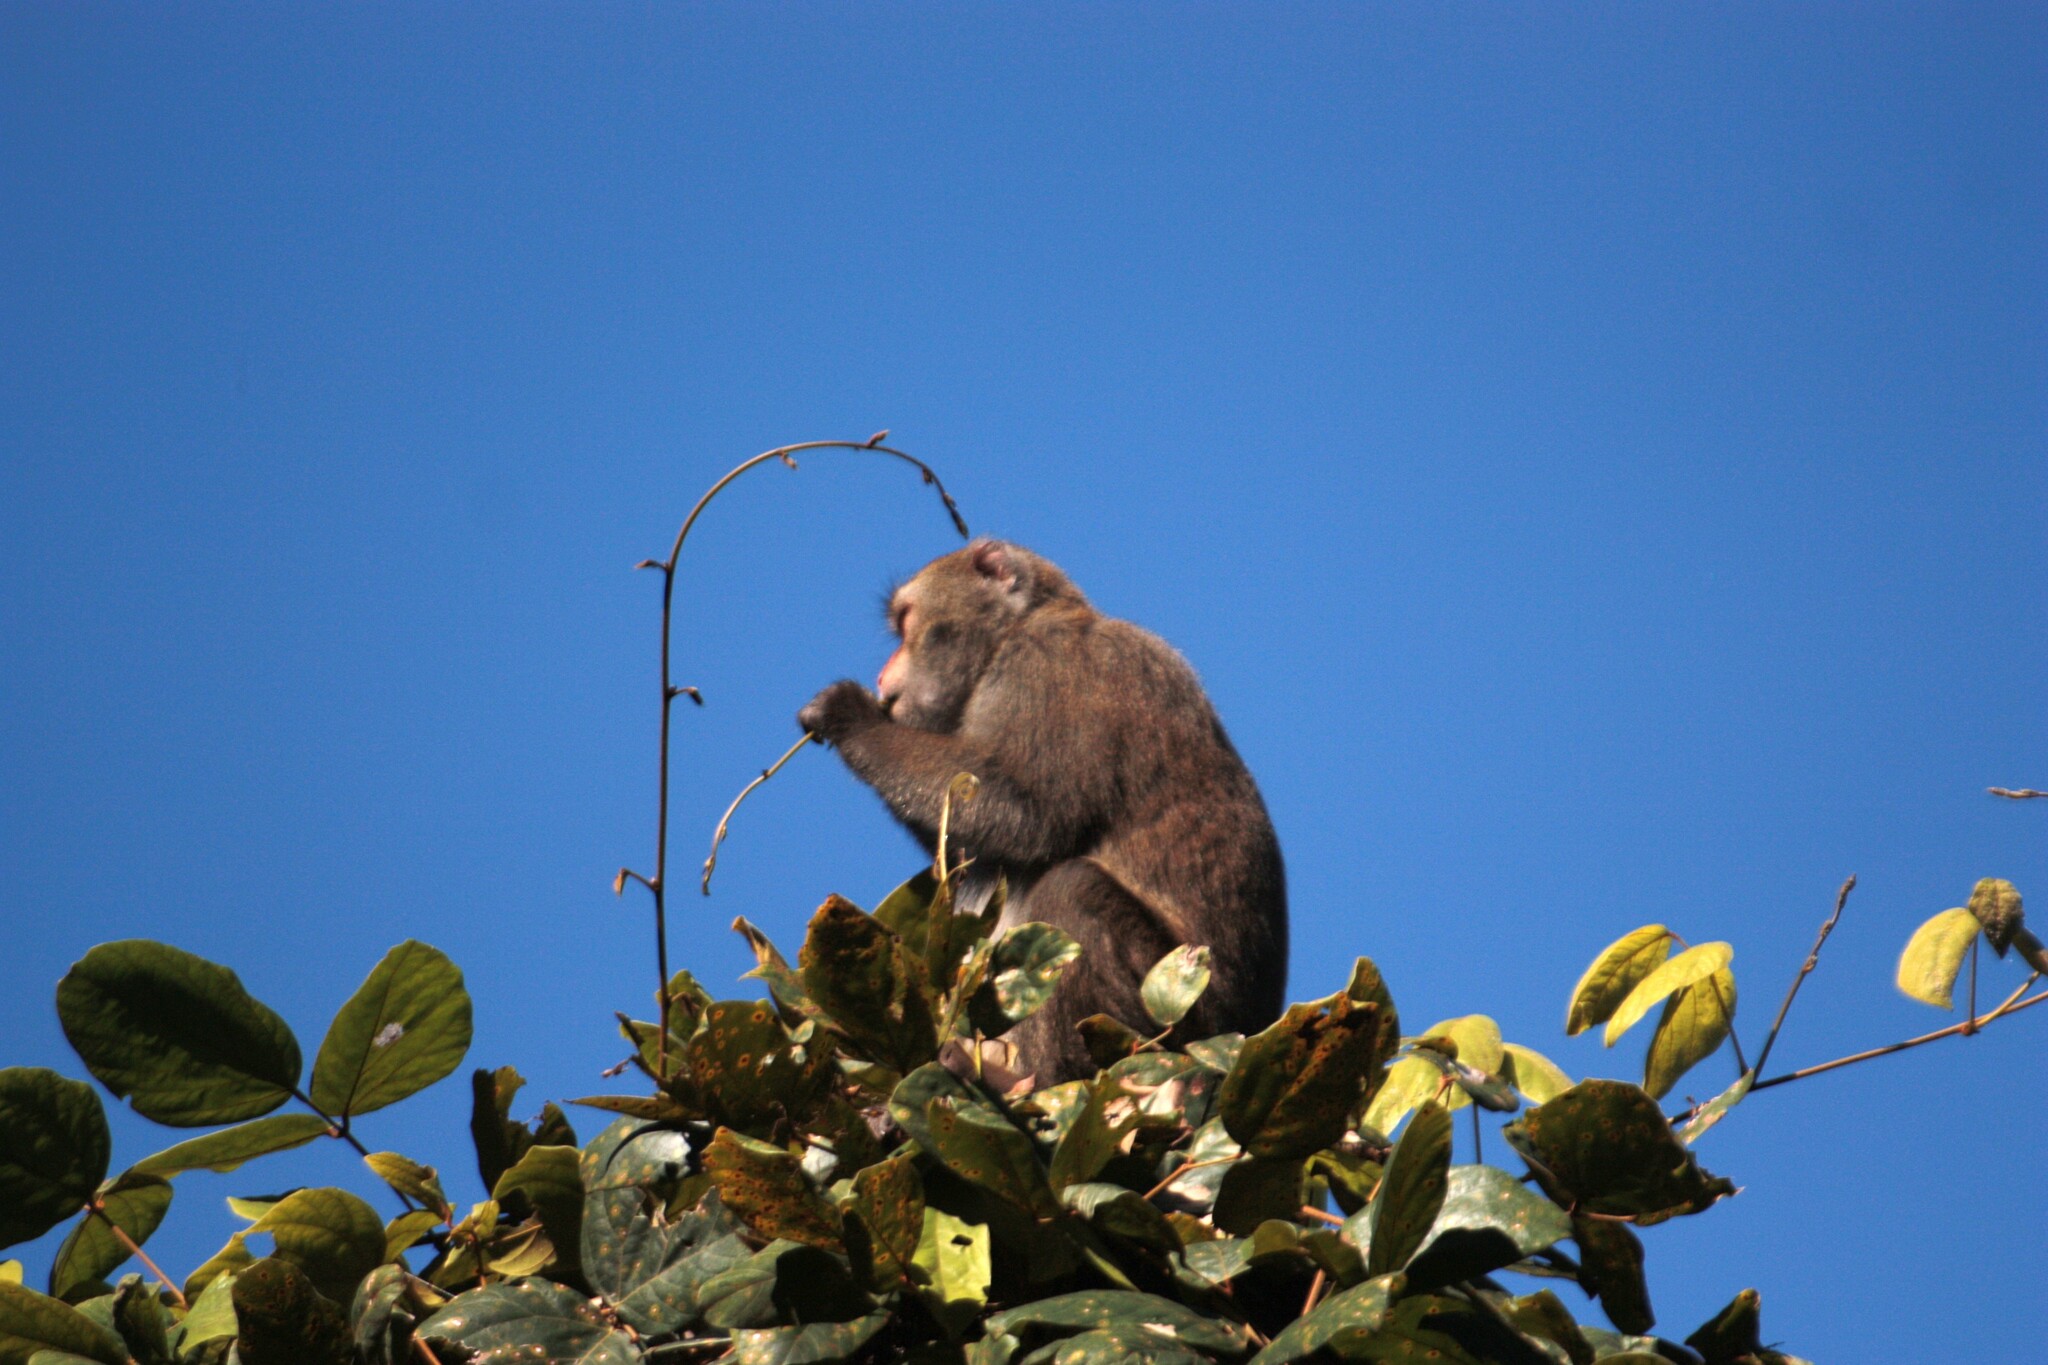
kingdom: Animalia
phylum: Chordata
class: Mammalia
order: Primates
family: Cercopithecidae
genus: Macaca
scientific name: Macaca cyclopis
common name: Formosan rock macaque
